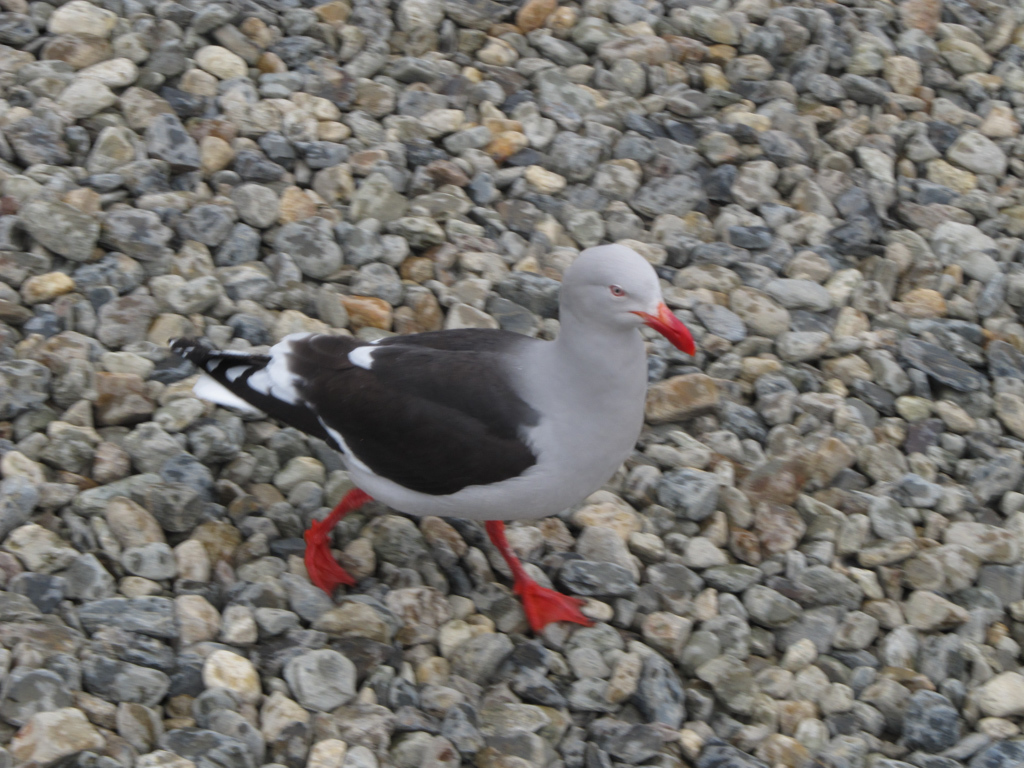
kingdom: Animalia
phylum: Chordata
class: Aves
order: Charadriiformes
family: Laridae
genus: Leucophaeus
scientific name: Leucophaeus scoresbii
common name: Dolphin gull
